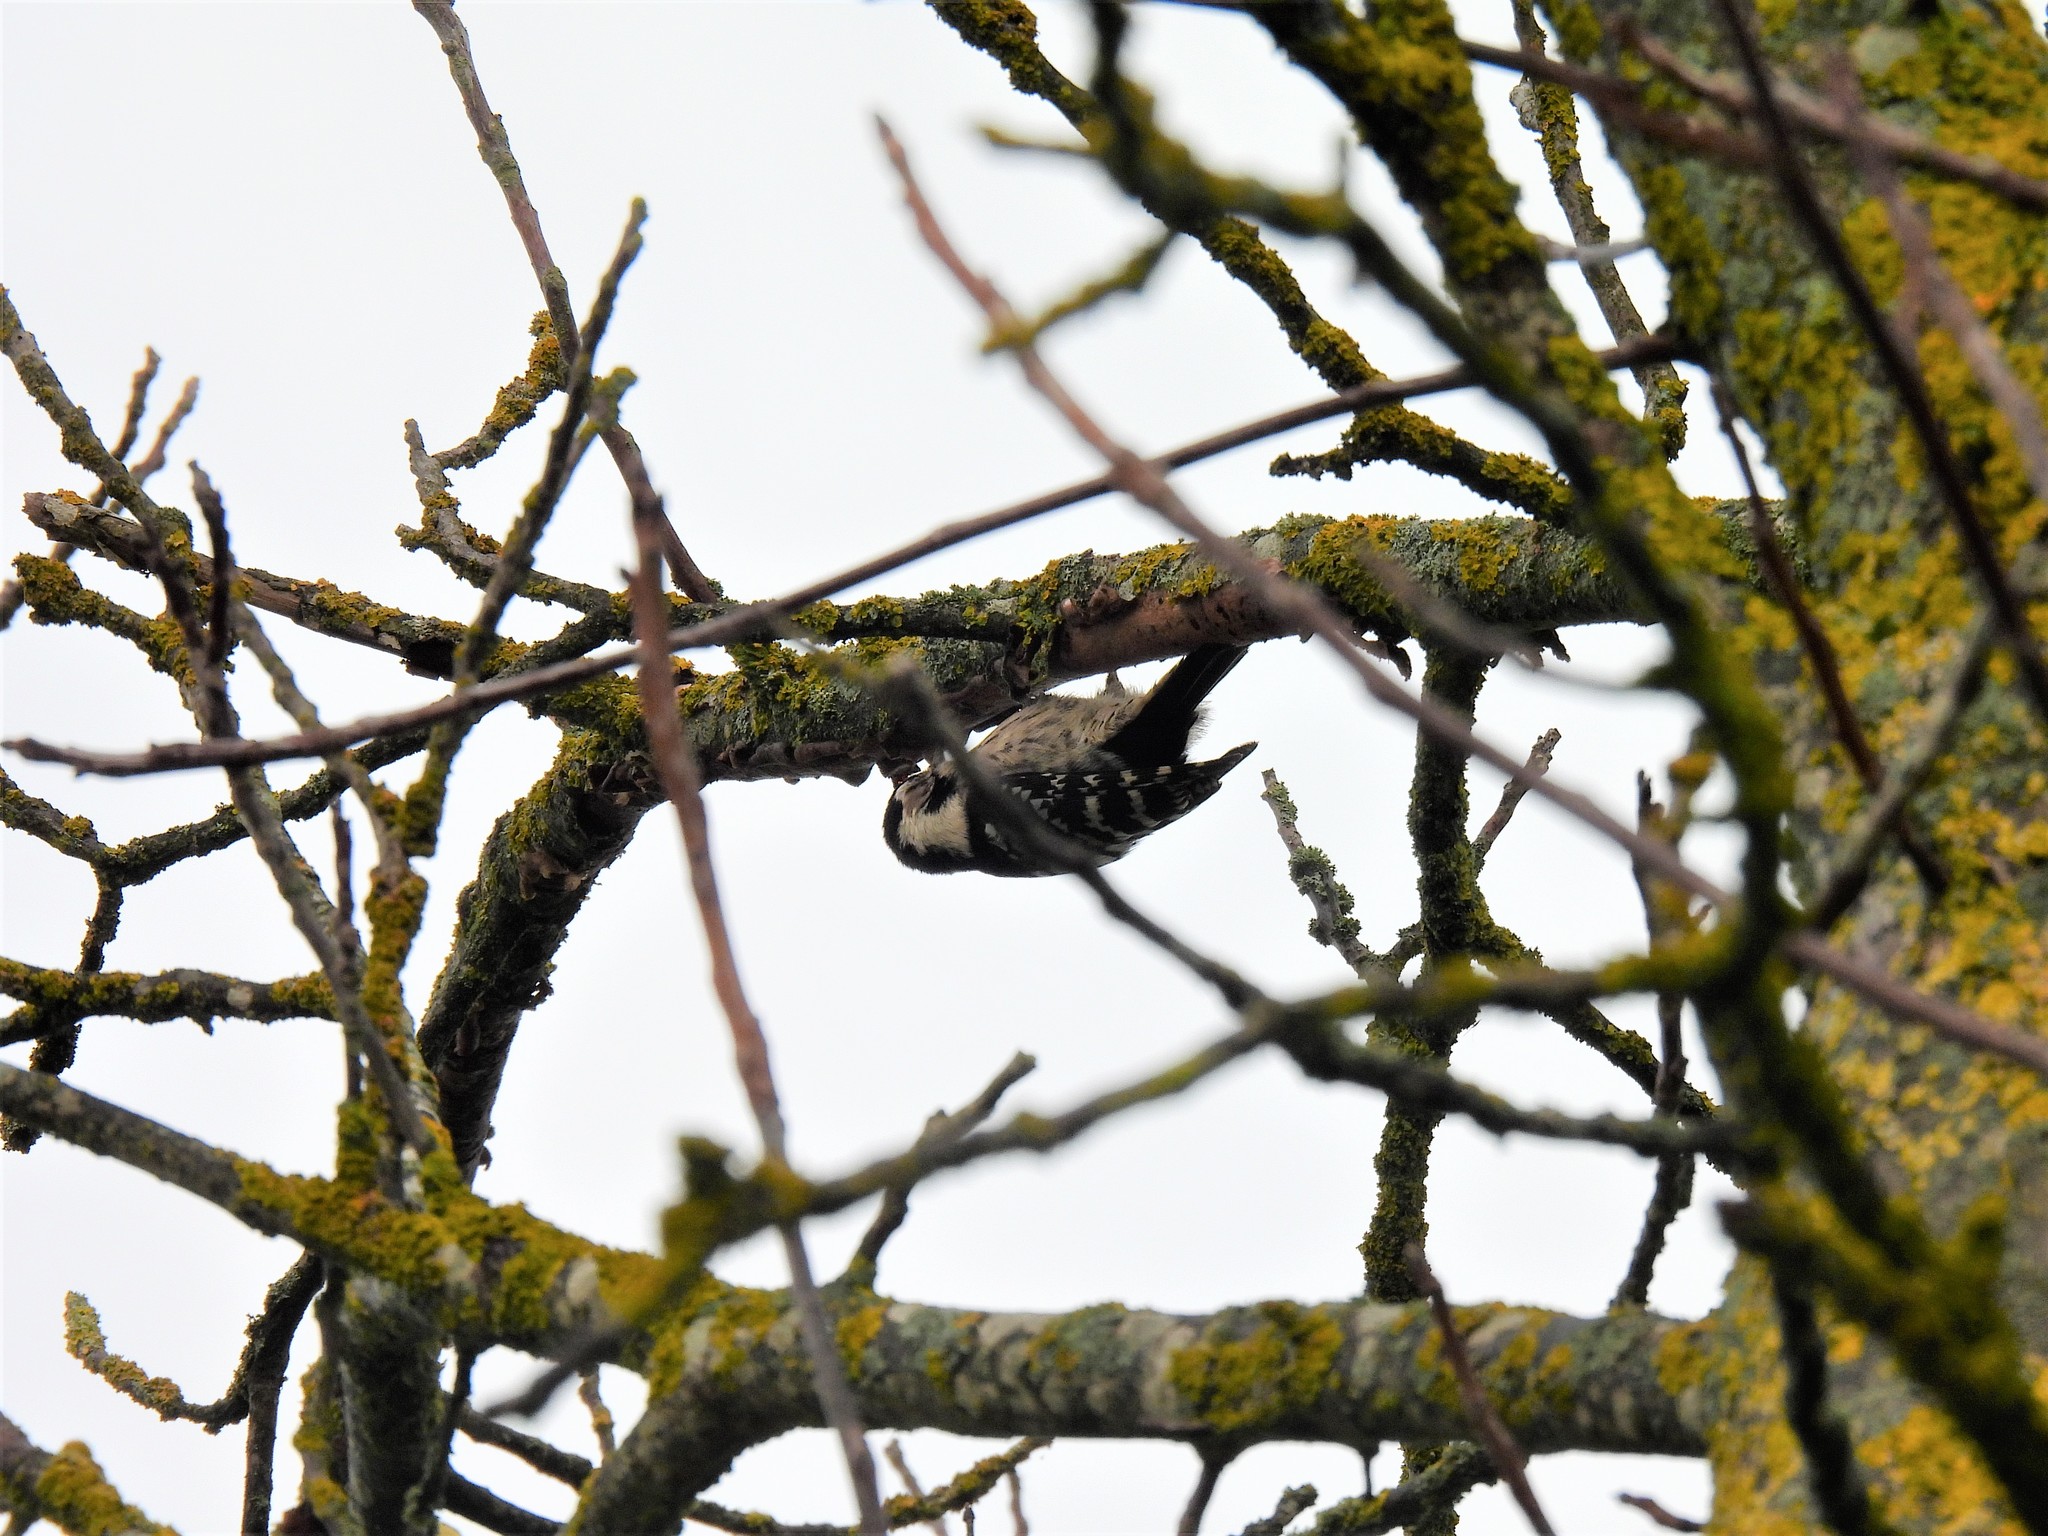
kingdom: Animalia
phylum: Chordata
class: Aves
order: Piciformes
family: Picidae
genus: Dryobates
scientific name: Dryobates minor
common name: Lesser spotted woodpecker
